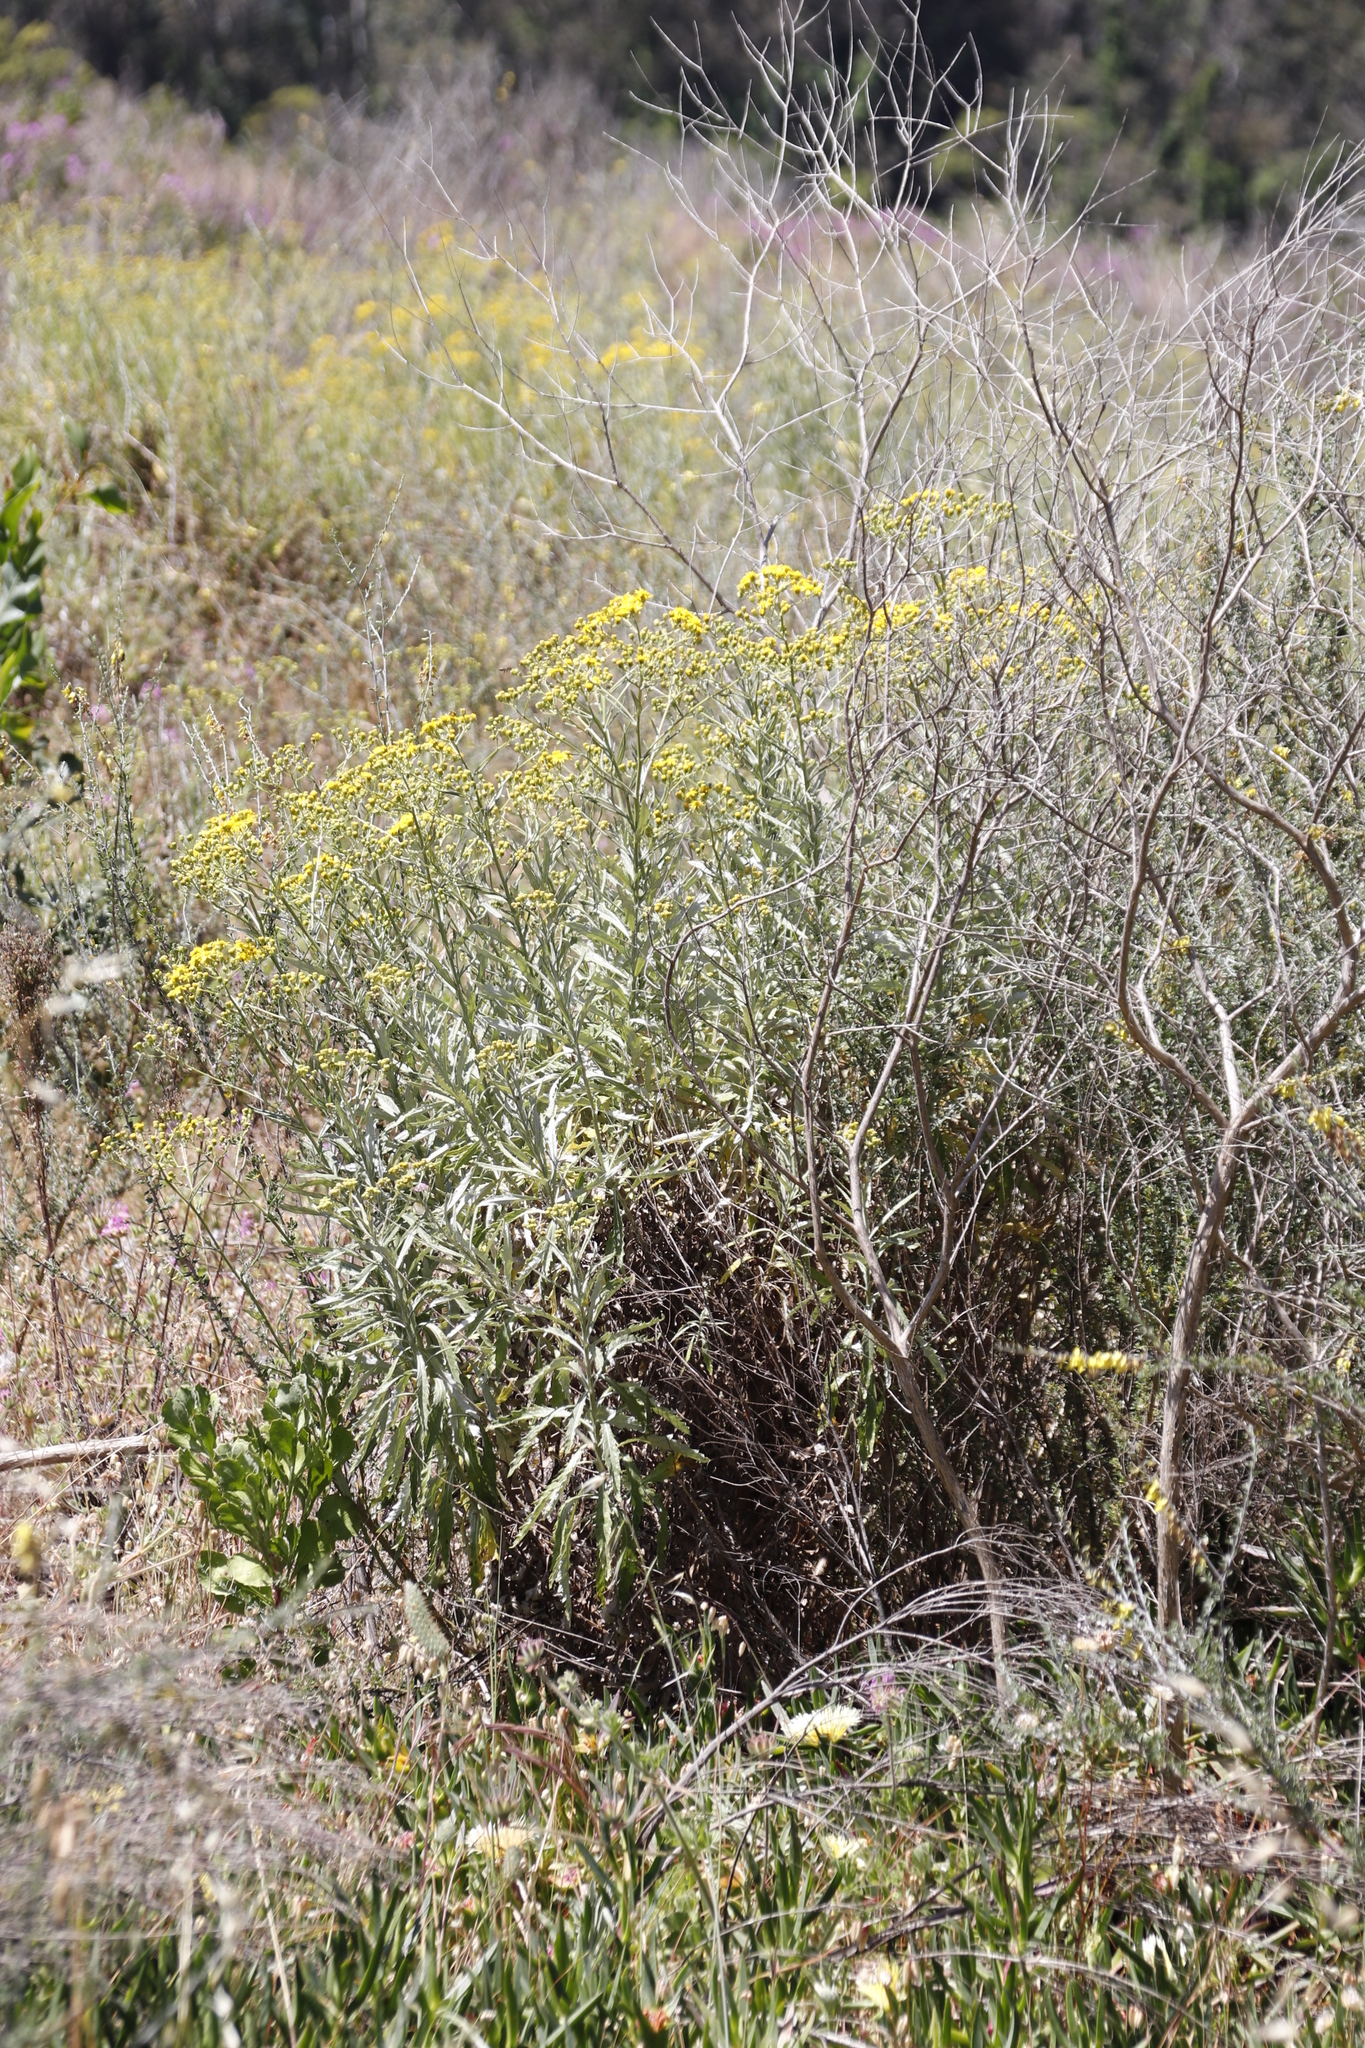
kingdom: Plantae
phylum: Tracheophyta
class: Magnoliopsida
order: Asterales
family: Asteraceae
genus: Senecio
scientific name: Senecio pterophorus
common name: Shoddy ragwort
